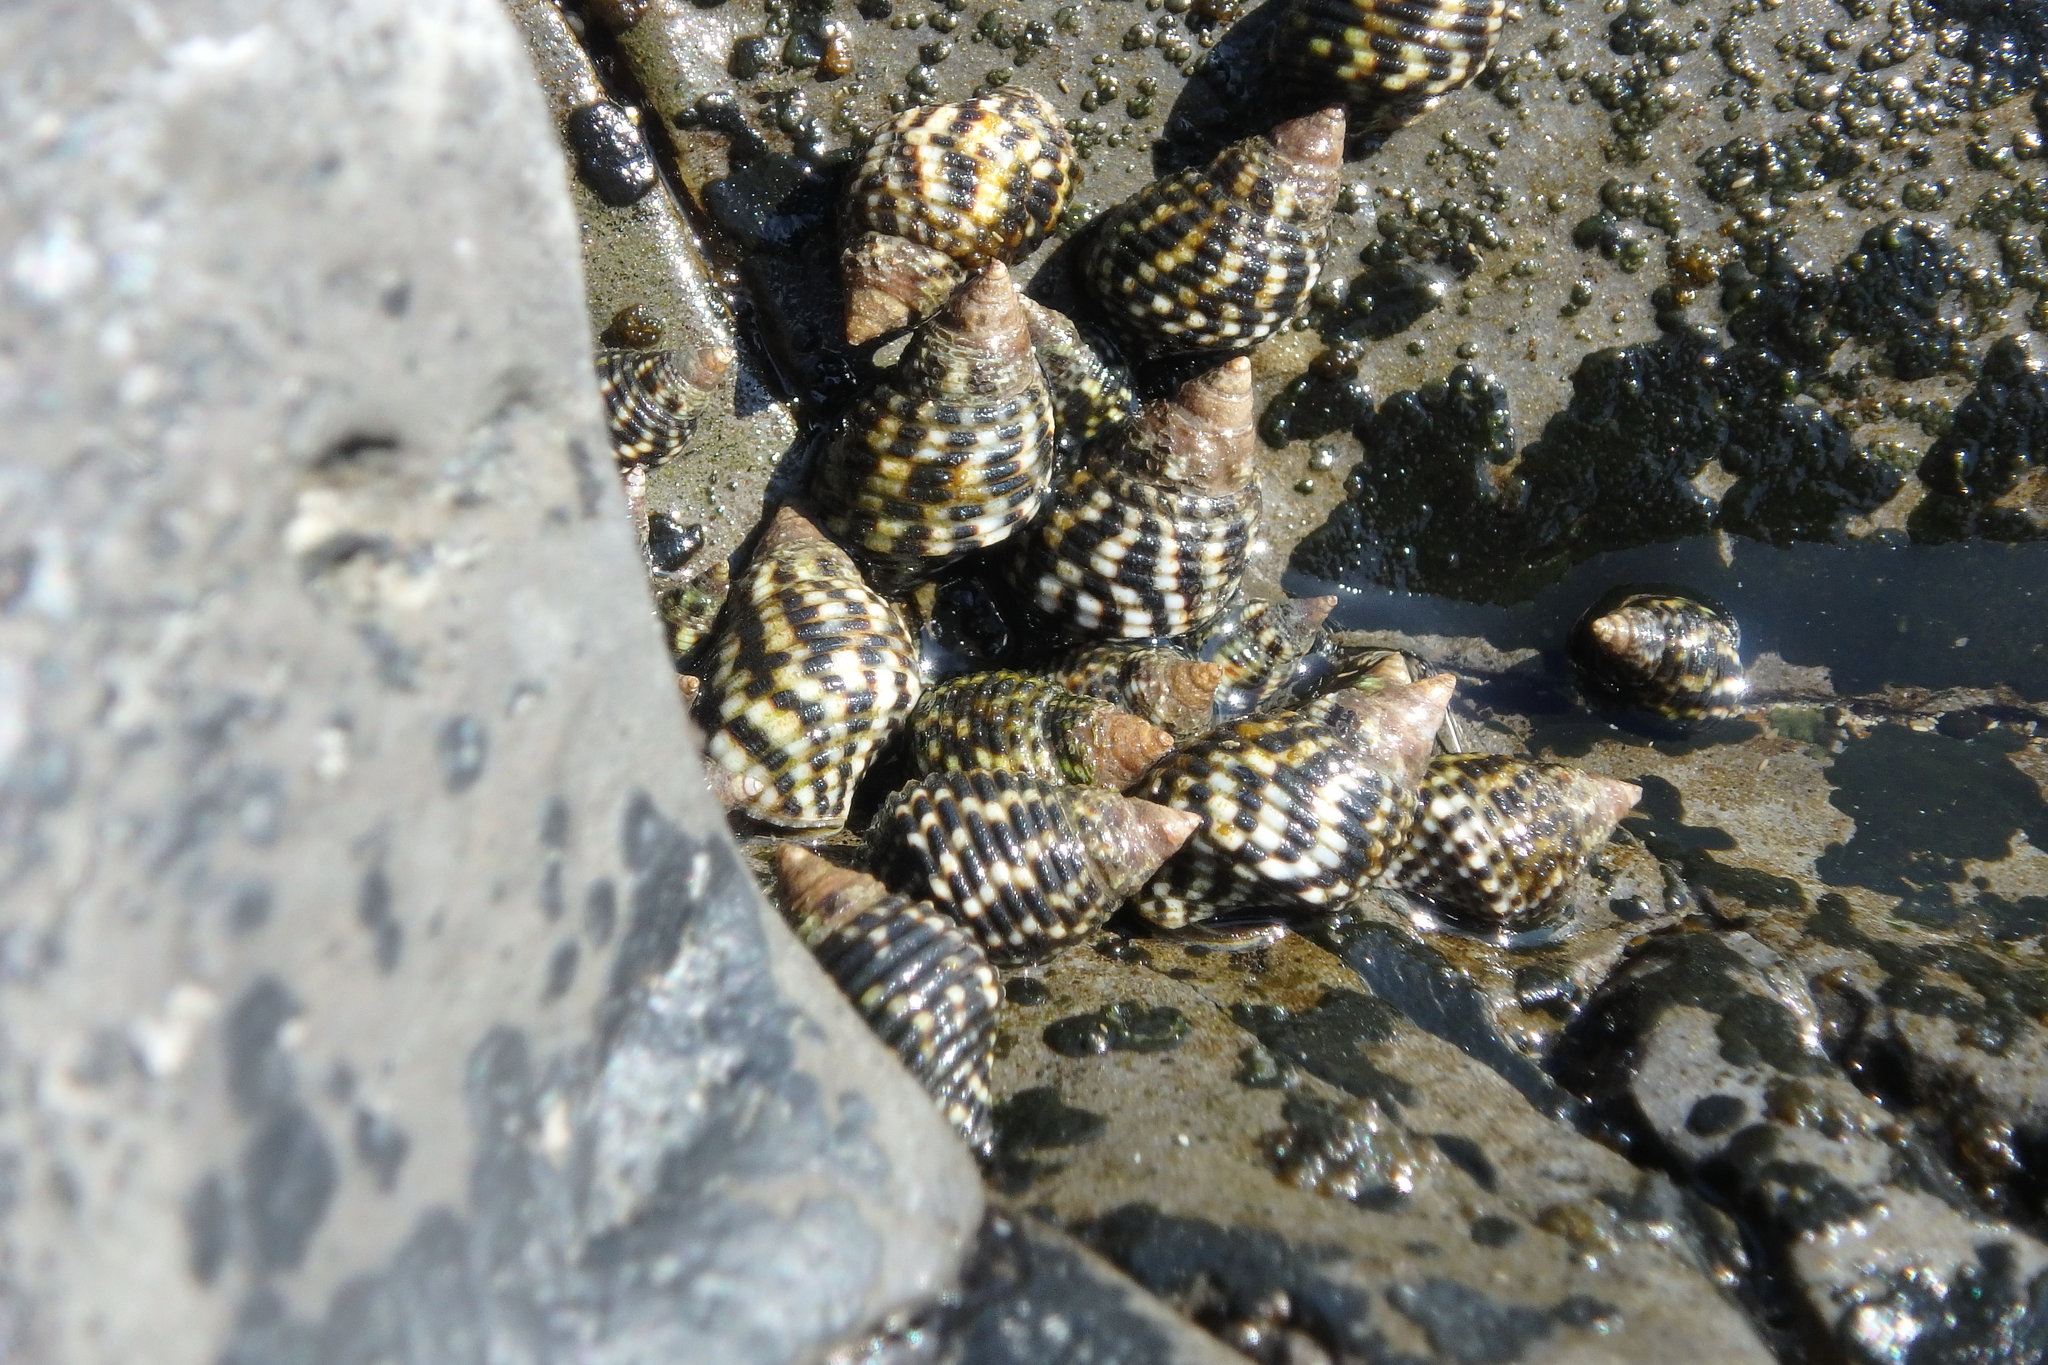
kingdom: Animalia
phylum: Mollusca
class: Gastropoda
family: Planaxidae
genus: Planaxis
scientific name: Planaxis sulcatus
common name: Furrowed planaxis
